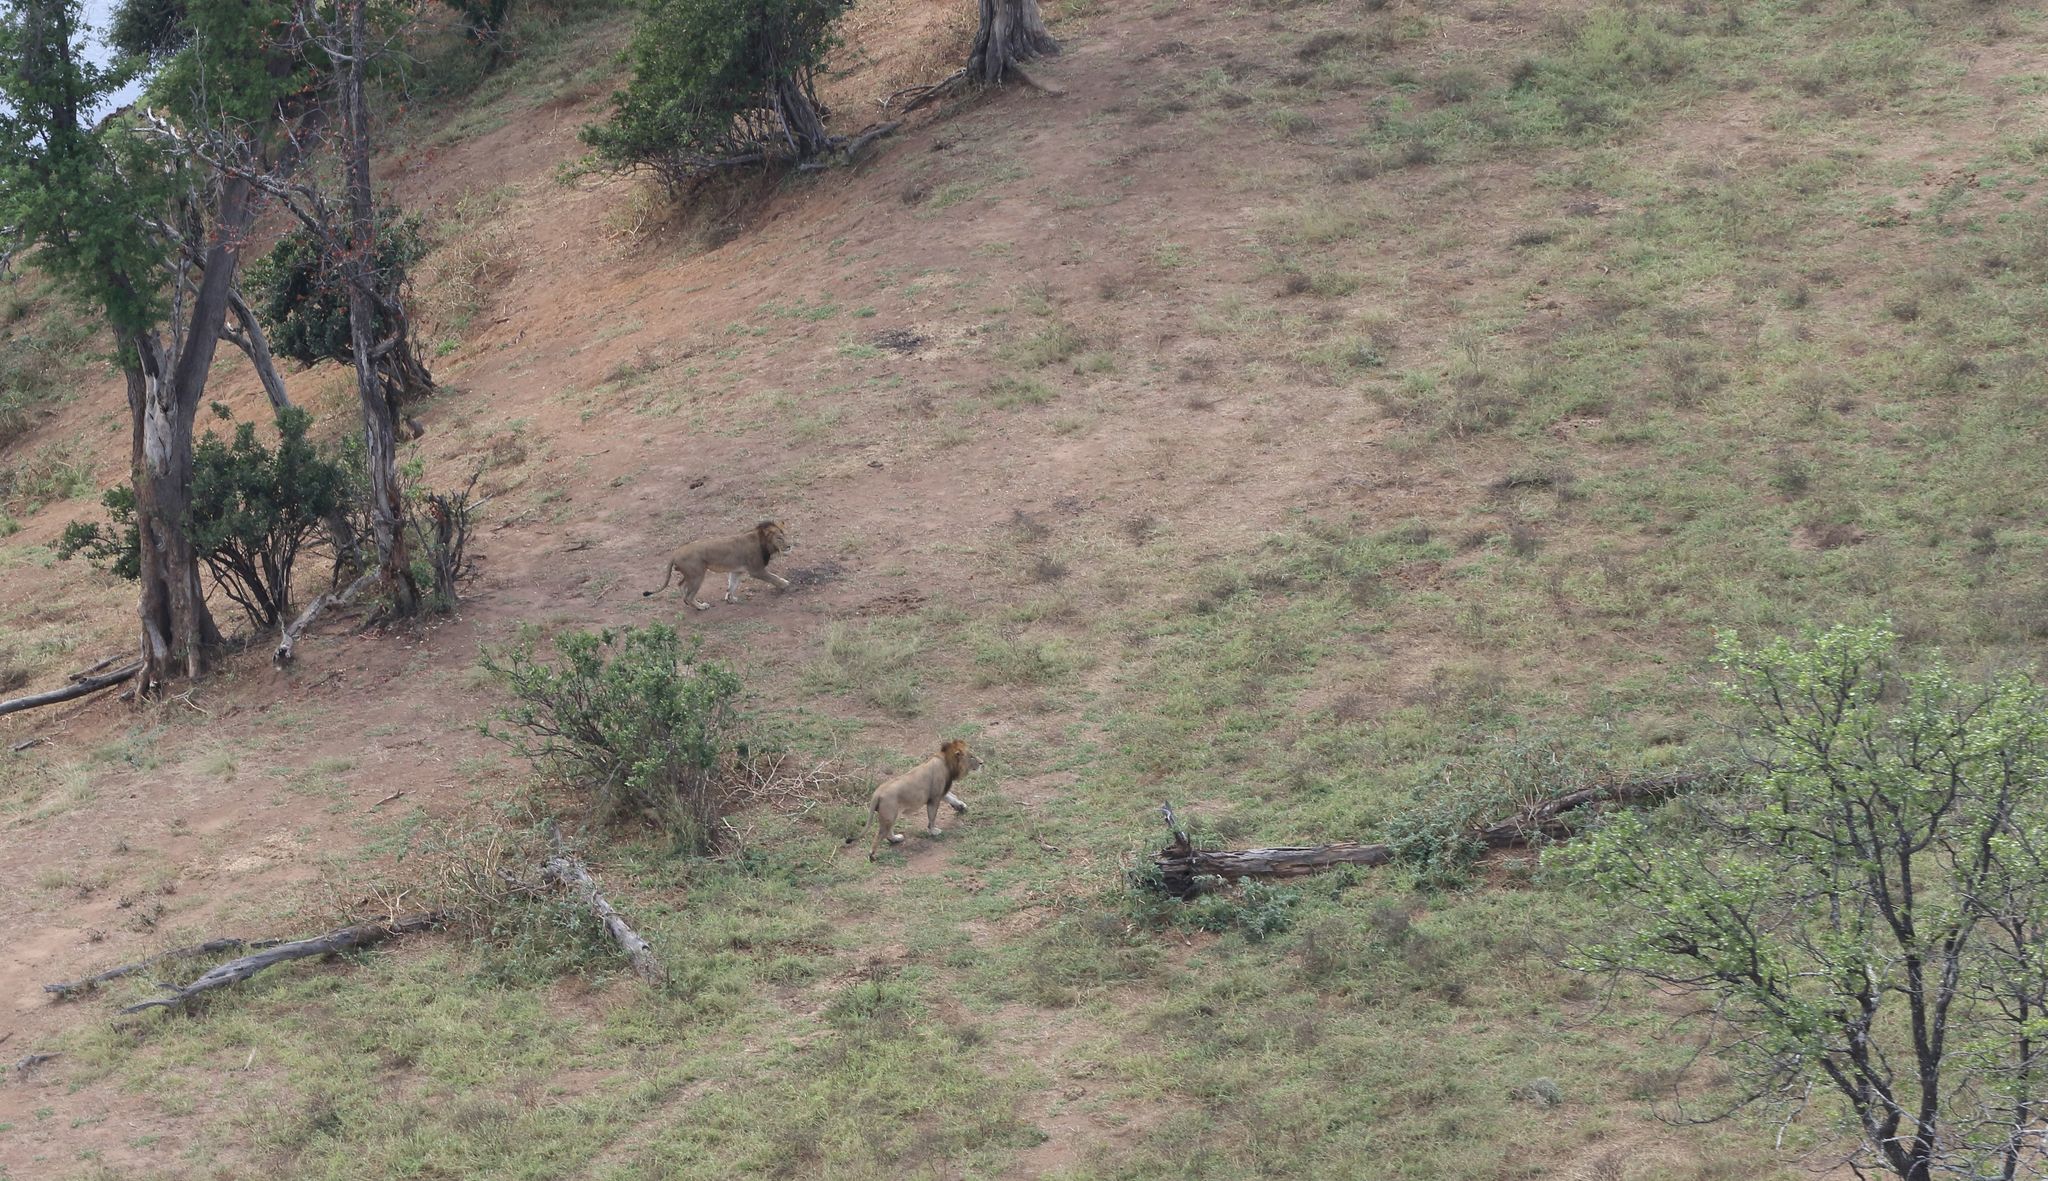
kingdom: Animalia
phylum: Chordata
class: Mammalia
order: Carnivora
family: Felidae
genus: Panthera
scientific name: Panthera leo
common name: Lion
